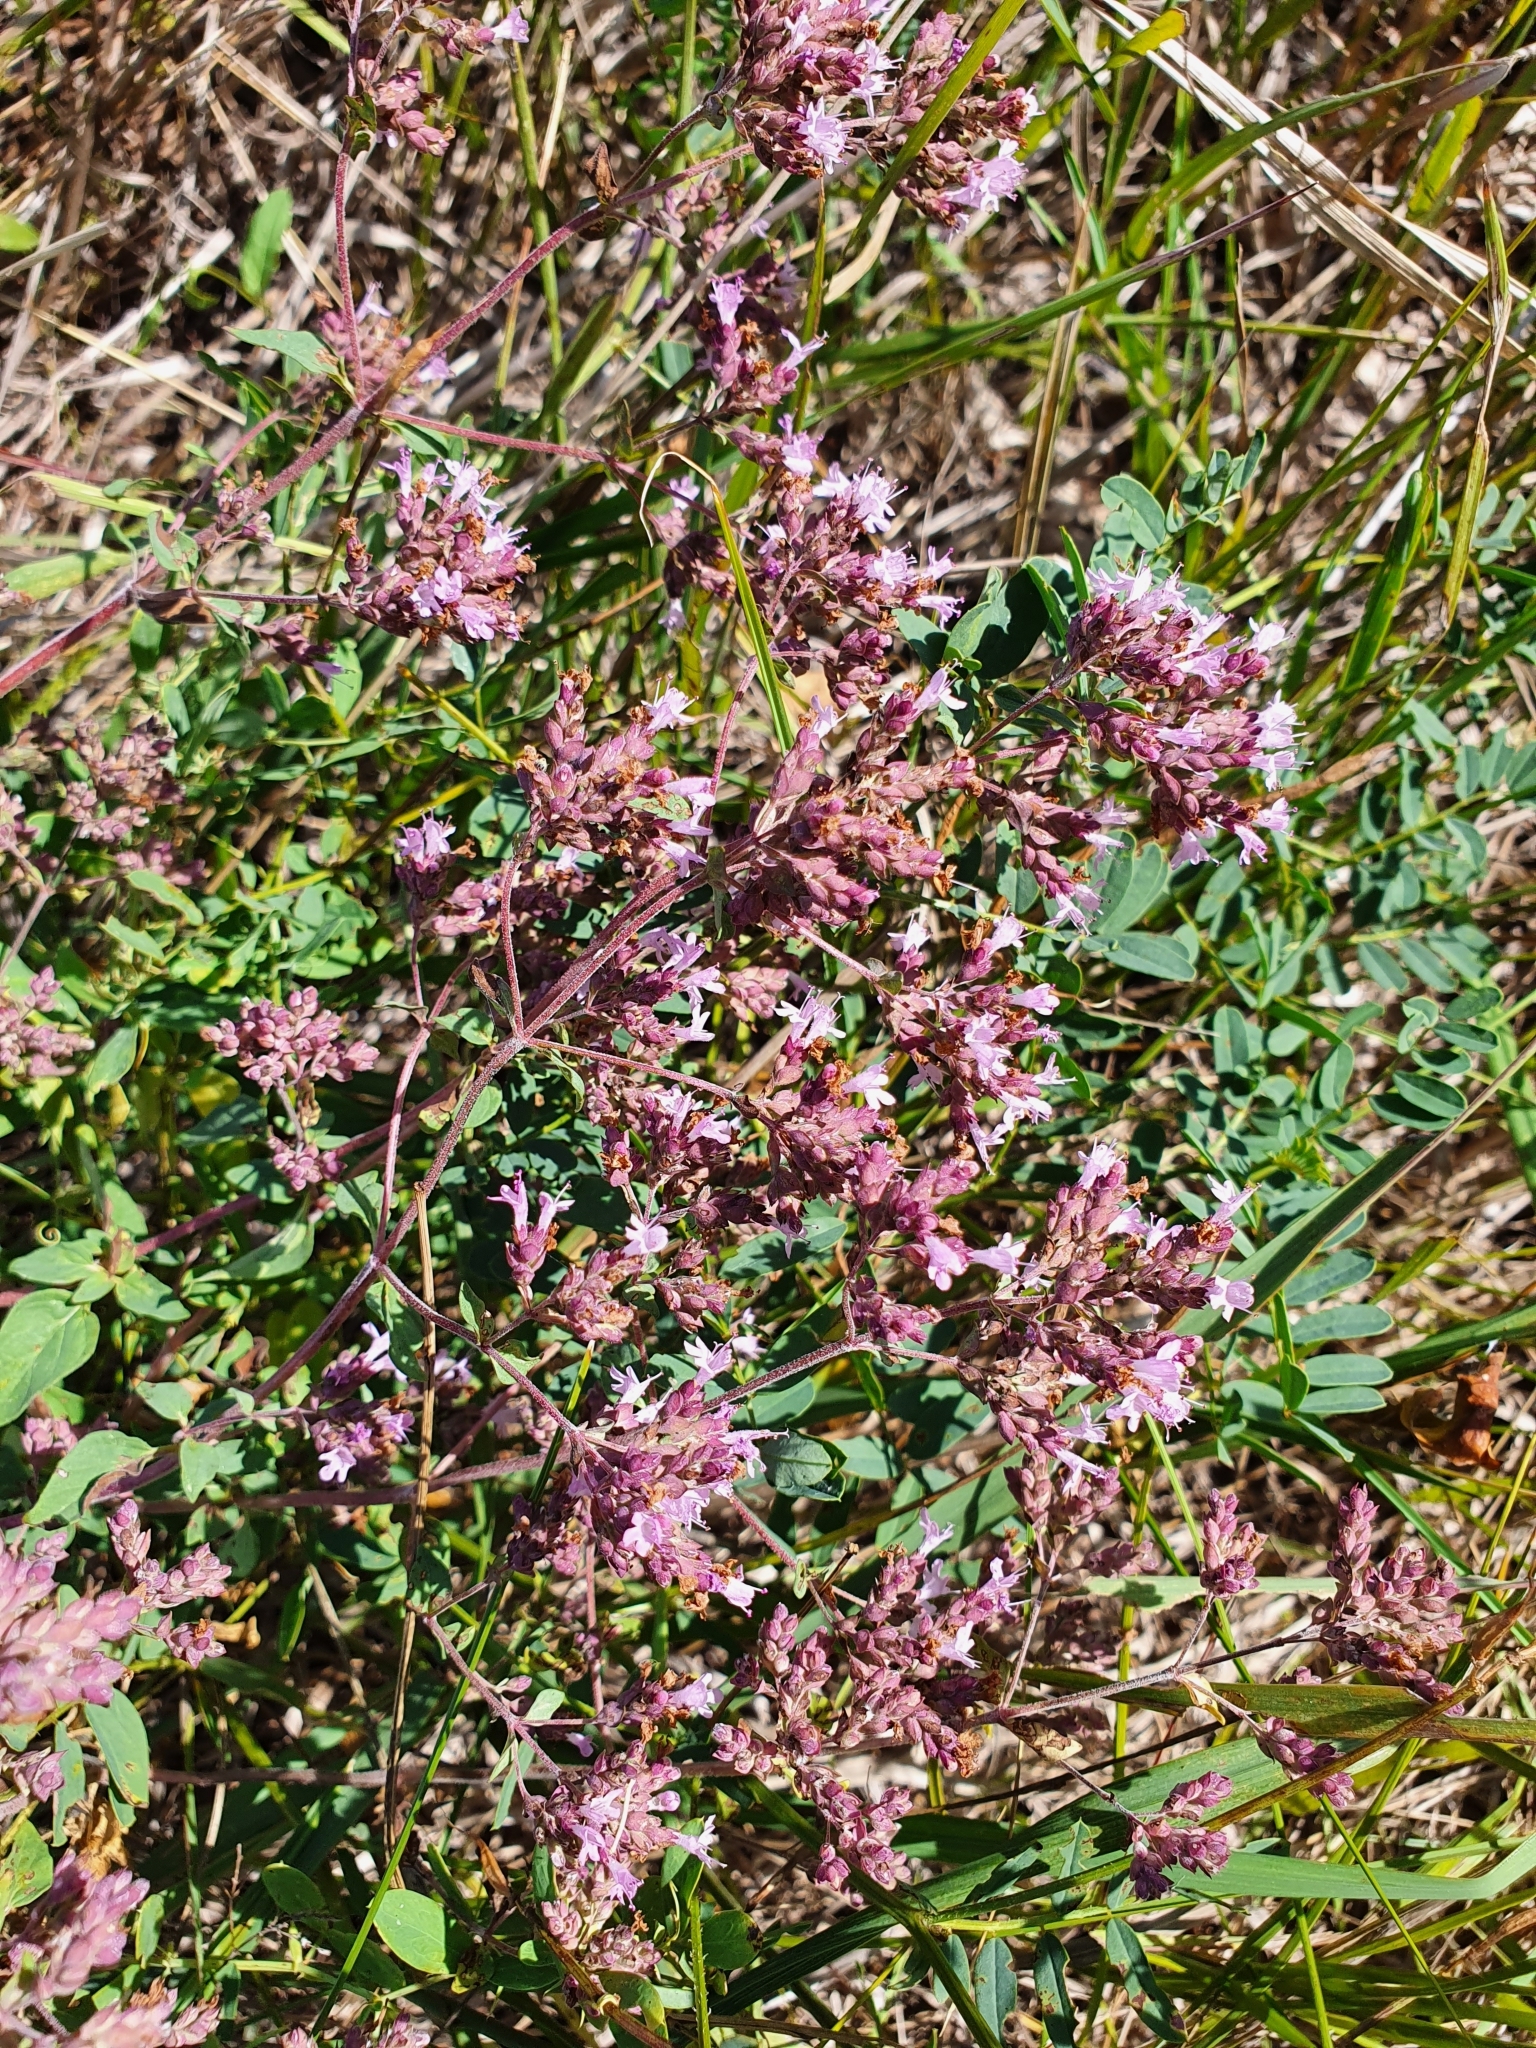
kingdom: Plantae
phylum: Tracheophyta
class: Magnoliopsida
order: Lamiales
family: Lamiaceae
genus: Origanum
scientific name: Origanum vulgare
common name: Wild marjoram
